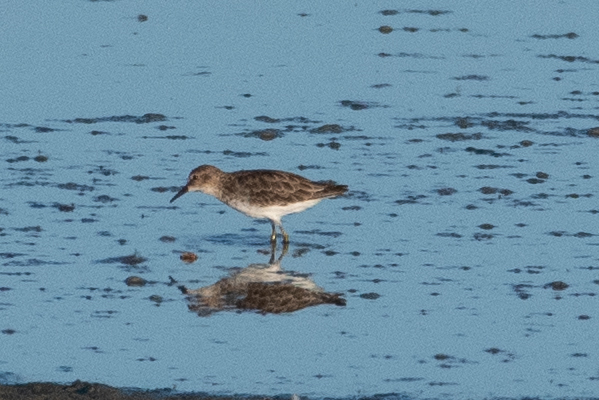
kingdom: Animalia
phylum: Chordata
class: Aves
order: Charadriiformes
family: Scolopacidae
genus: Calidris
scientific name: Calidris minutilla
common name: Least sandpiper
